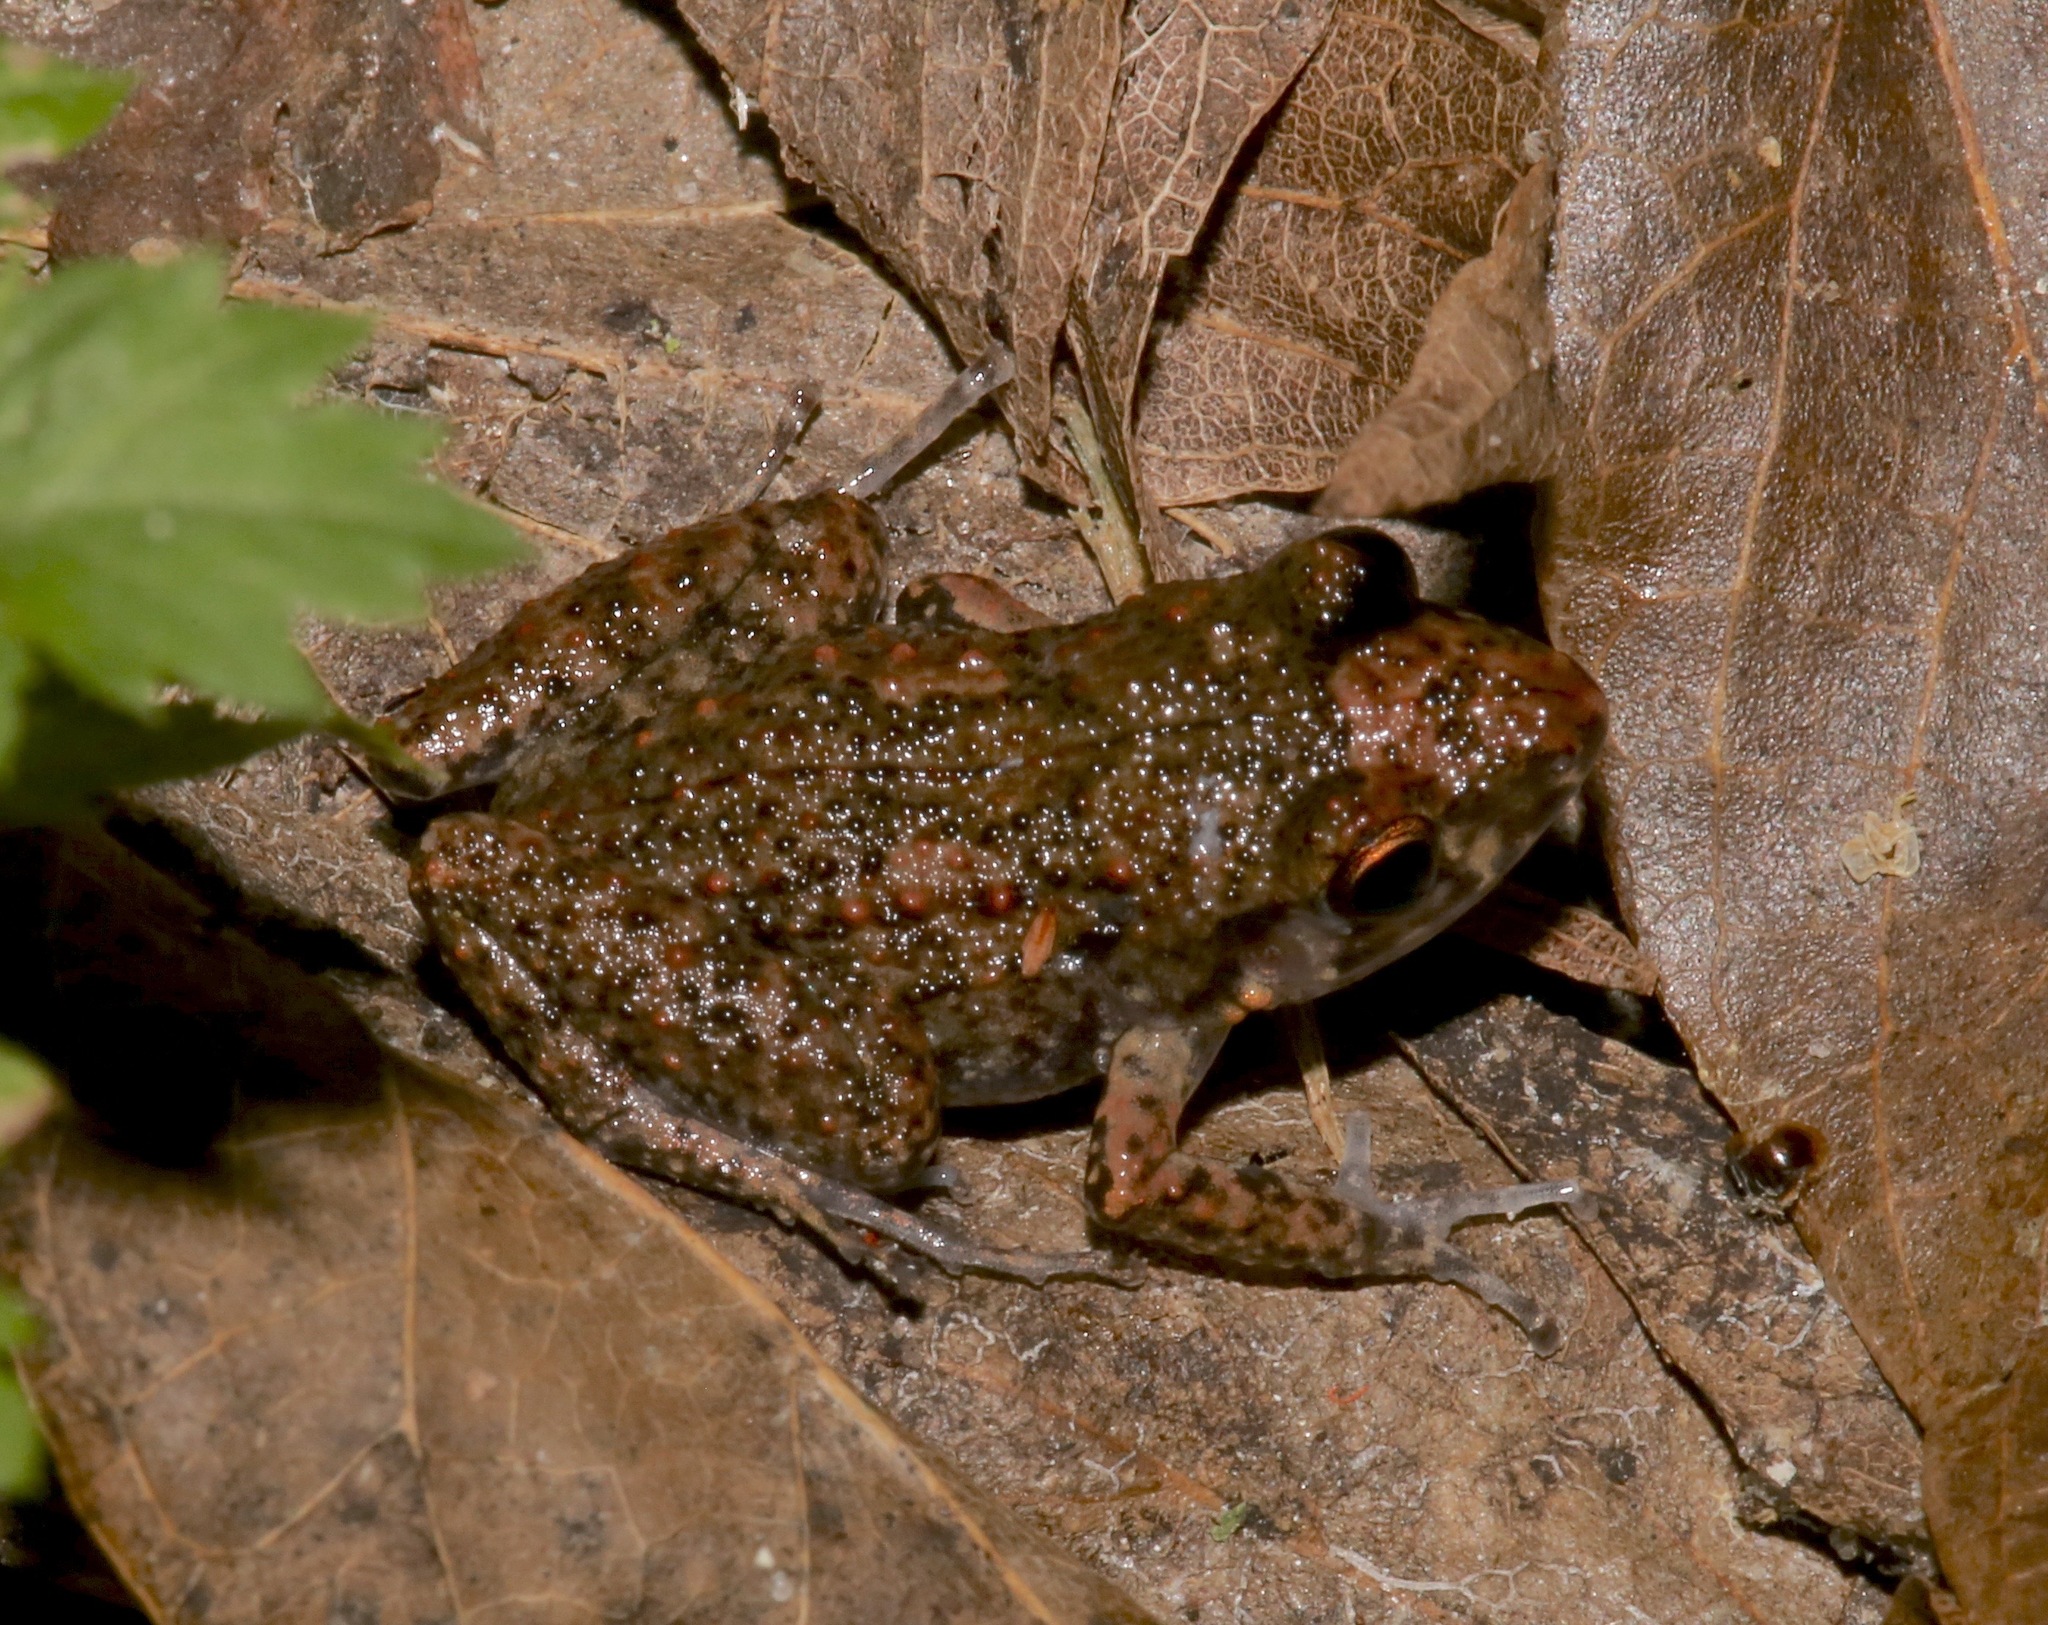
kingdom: Animalia
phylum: Chordata
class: Amphibia
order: Anura
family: Eleutherodactylidae
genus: Eleutherodactylus
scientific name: Eleutherodactylus planirostris
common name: Greenhouse frog
